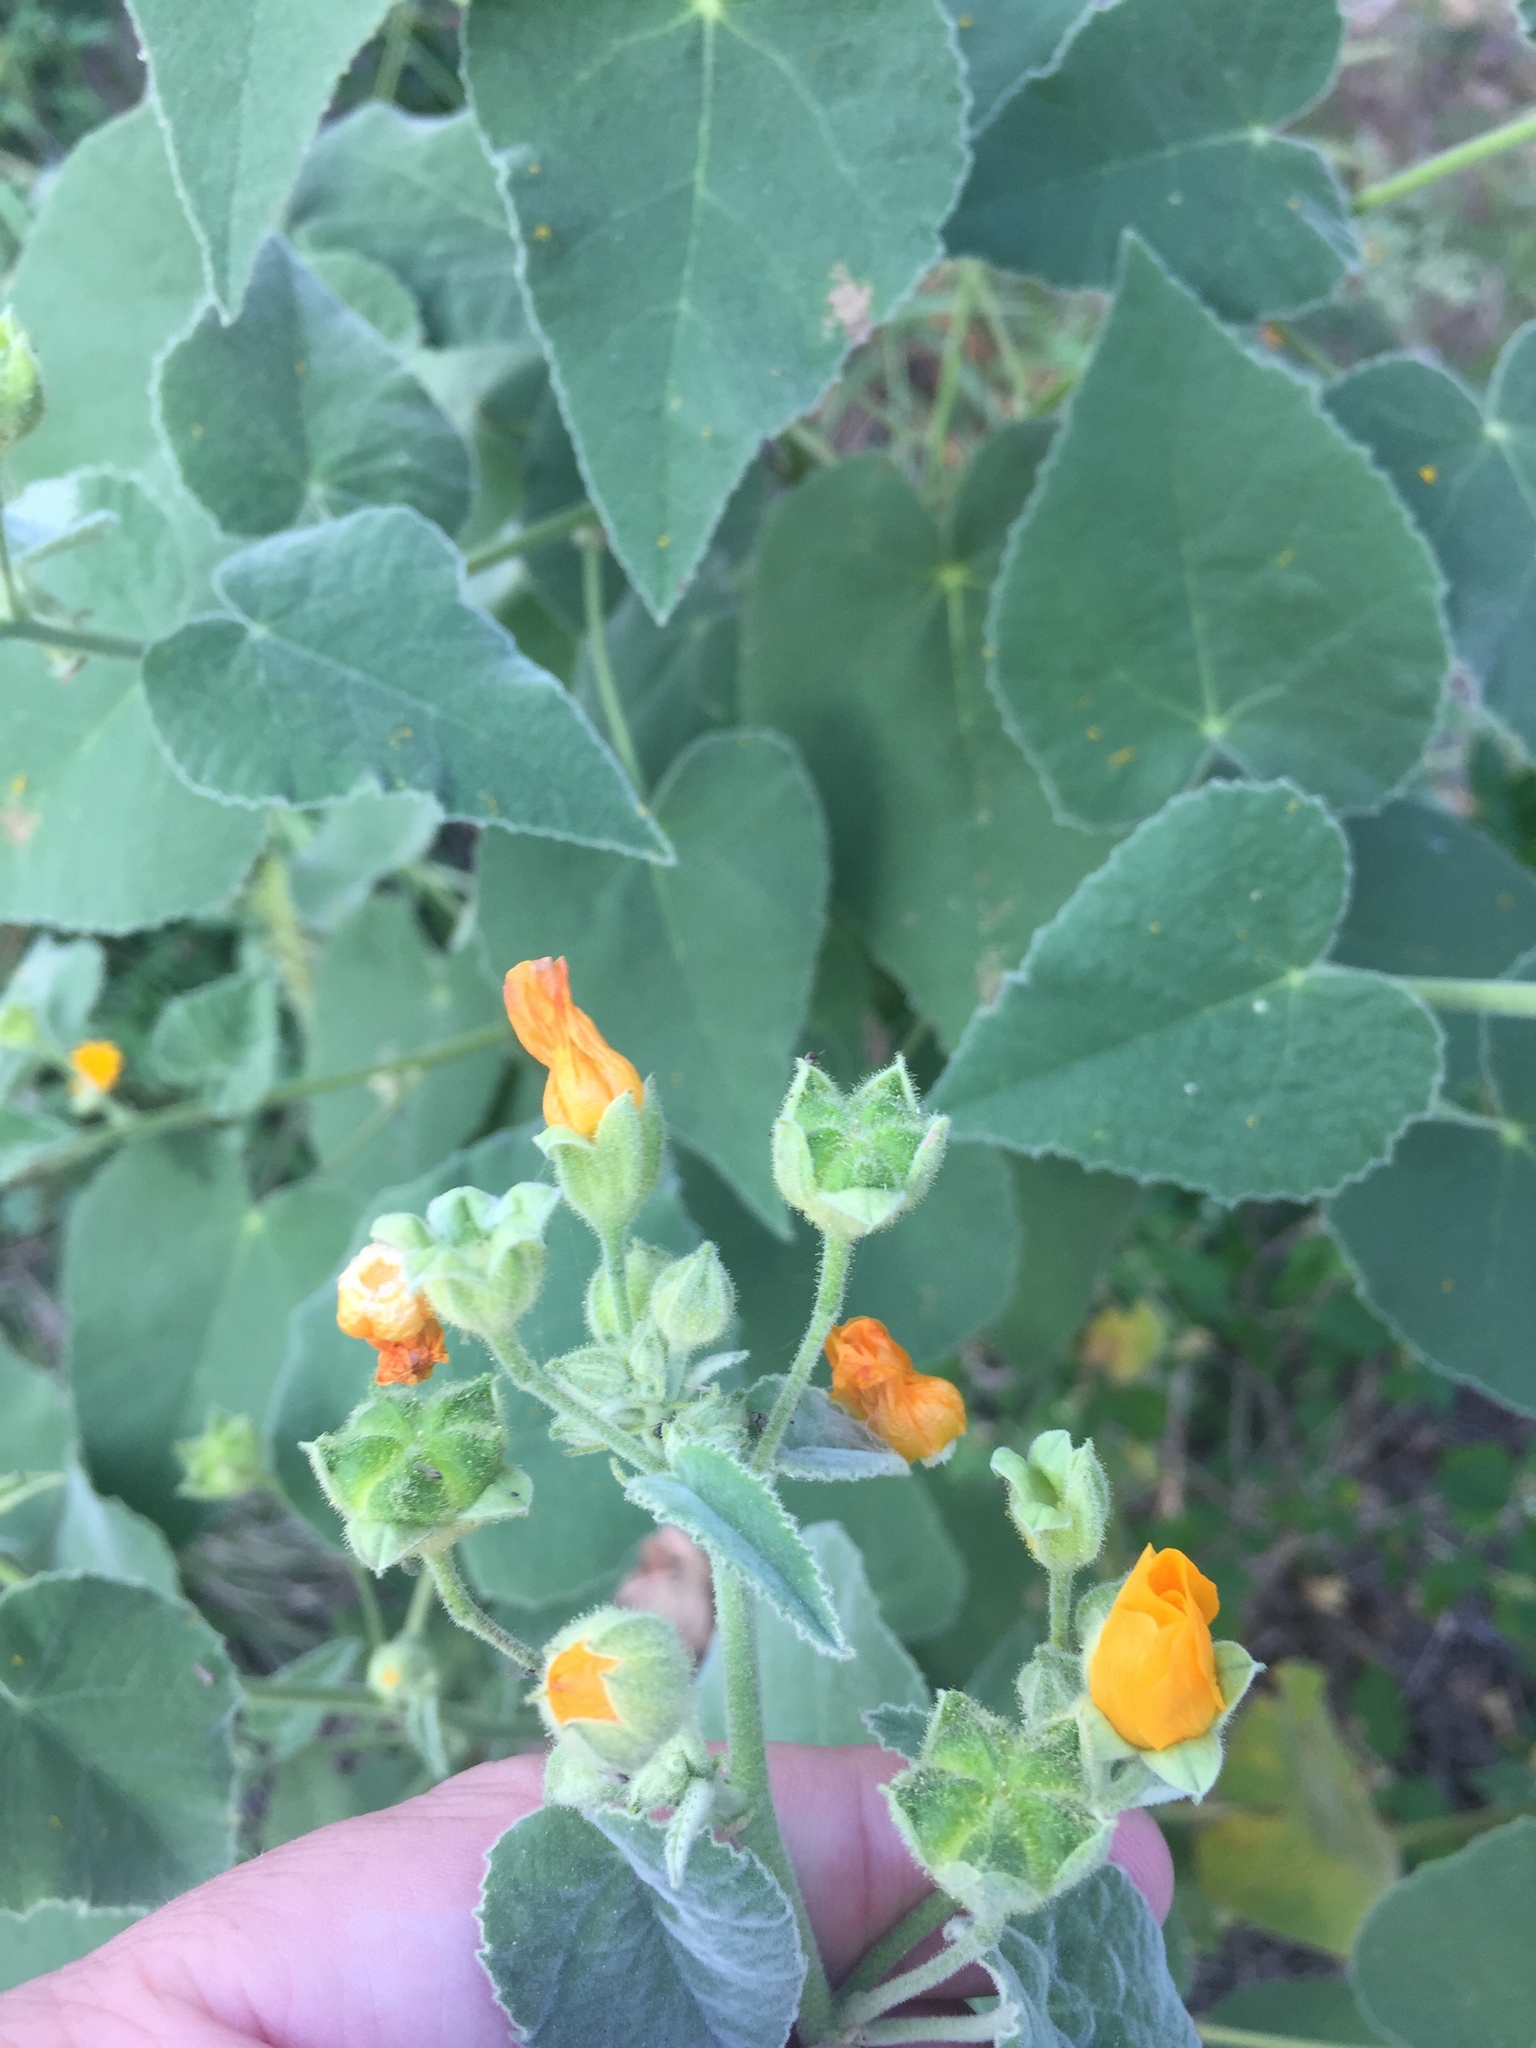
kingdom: Plantae
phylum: Tracheophyta
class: Magnoliopsida
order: Malvales
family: Malvaceae
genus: Allowissadula
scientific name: Allowissadula holosericea
